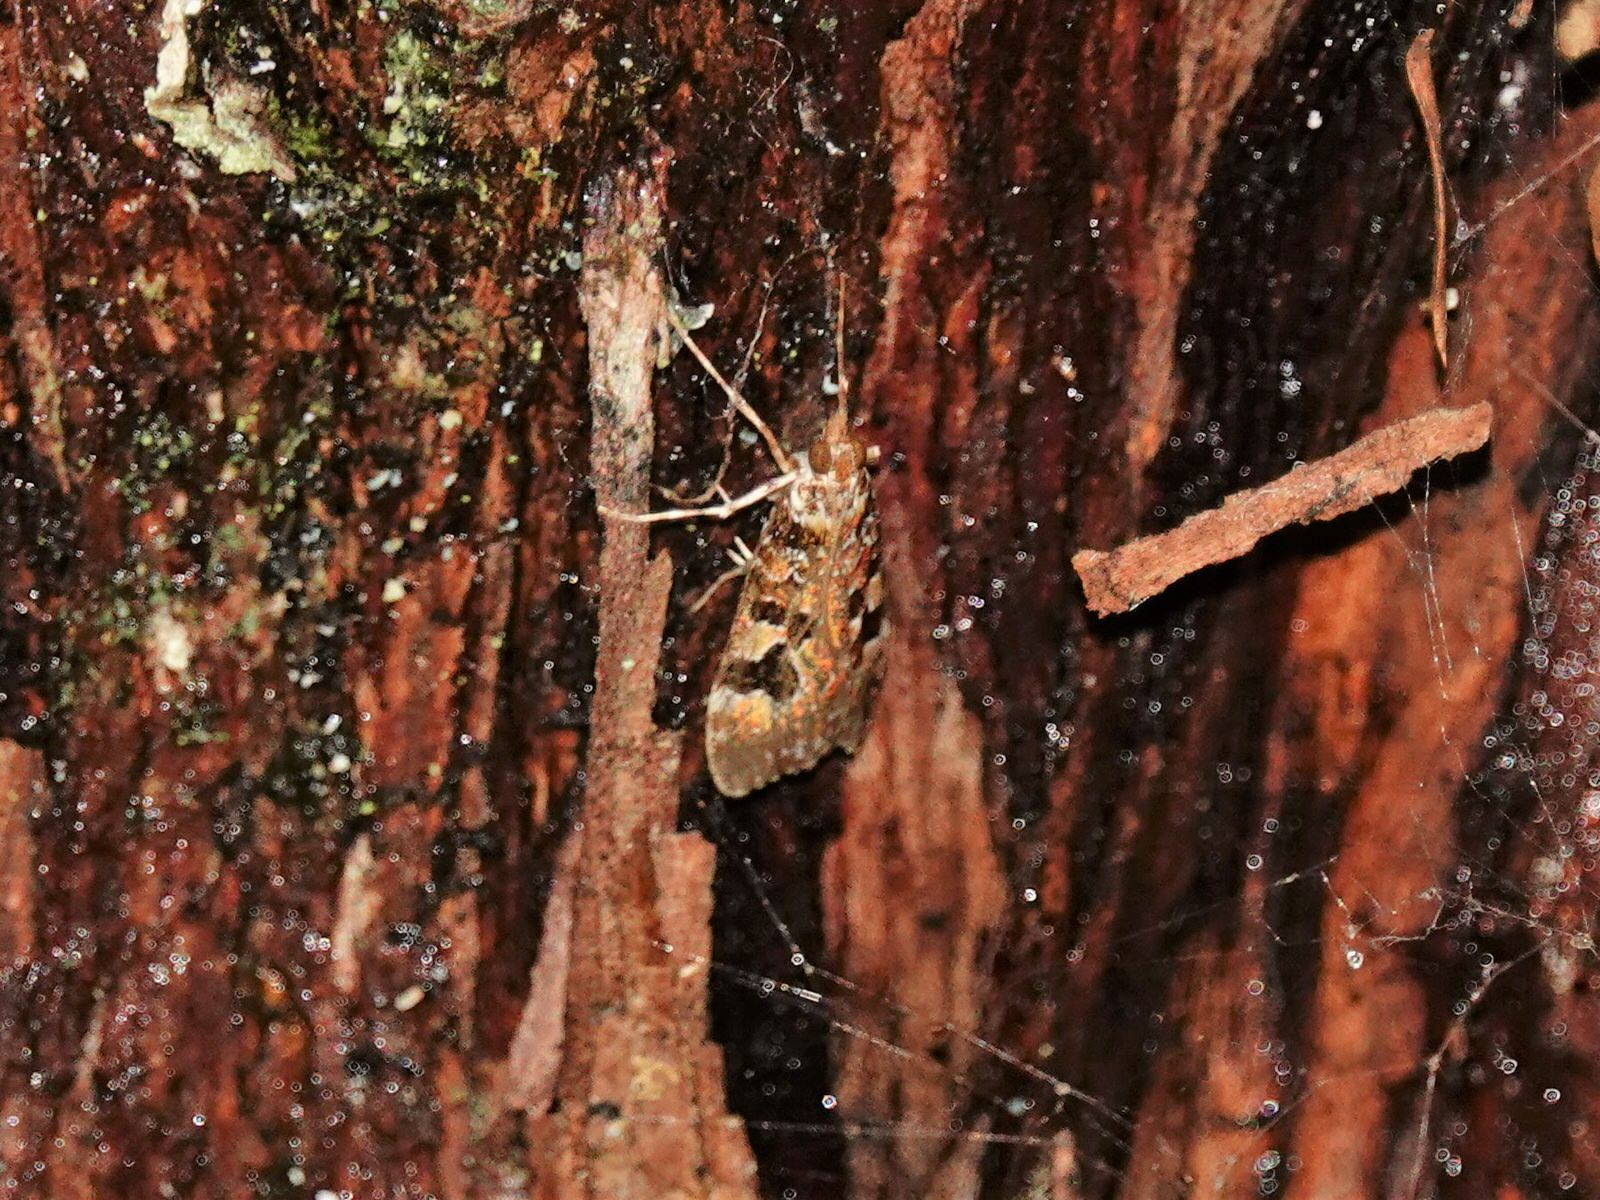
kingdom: Animalia
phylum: Arthropoda
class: Insecta
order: Lepidoptera
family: Crambidae
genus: Scoparia
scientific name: Scoparia ustimacula
